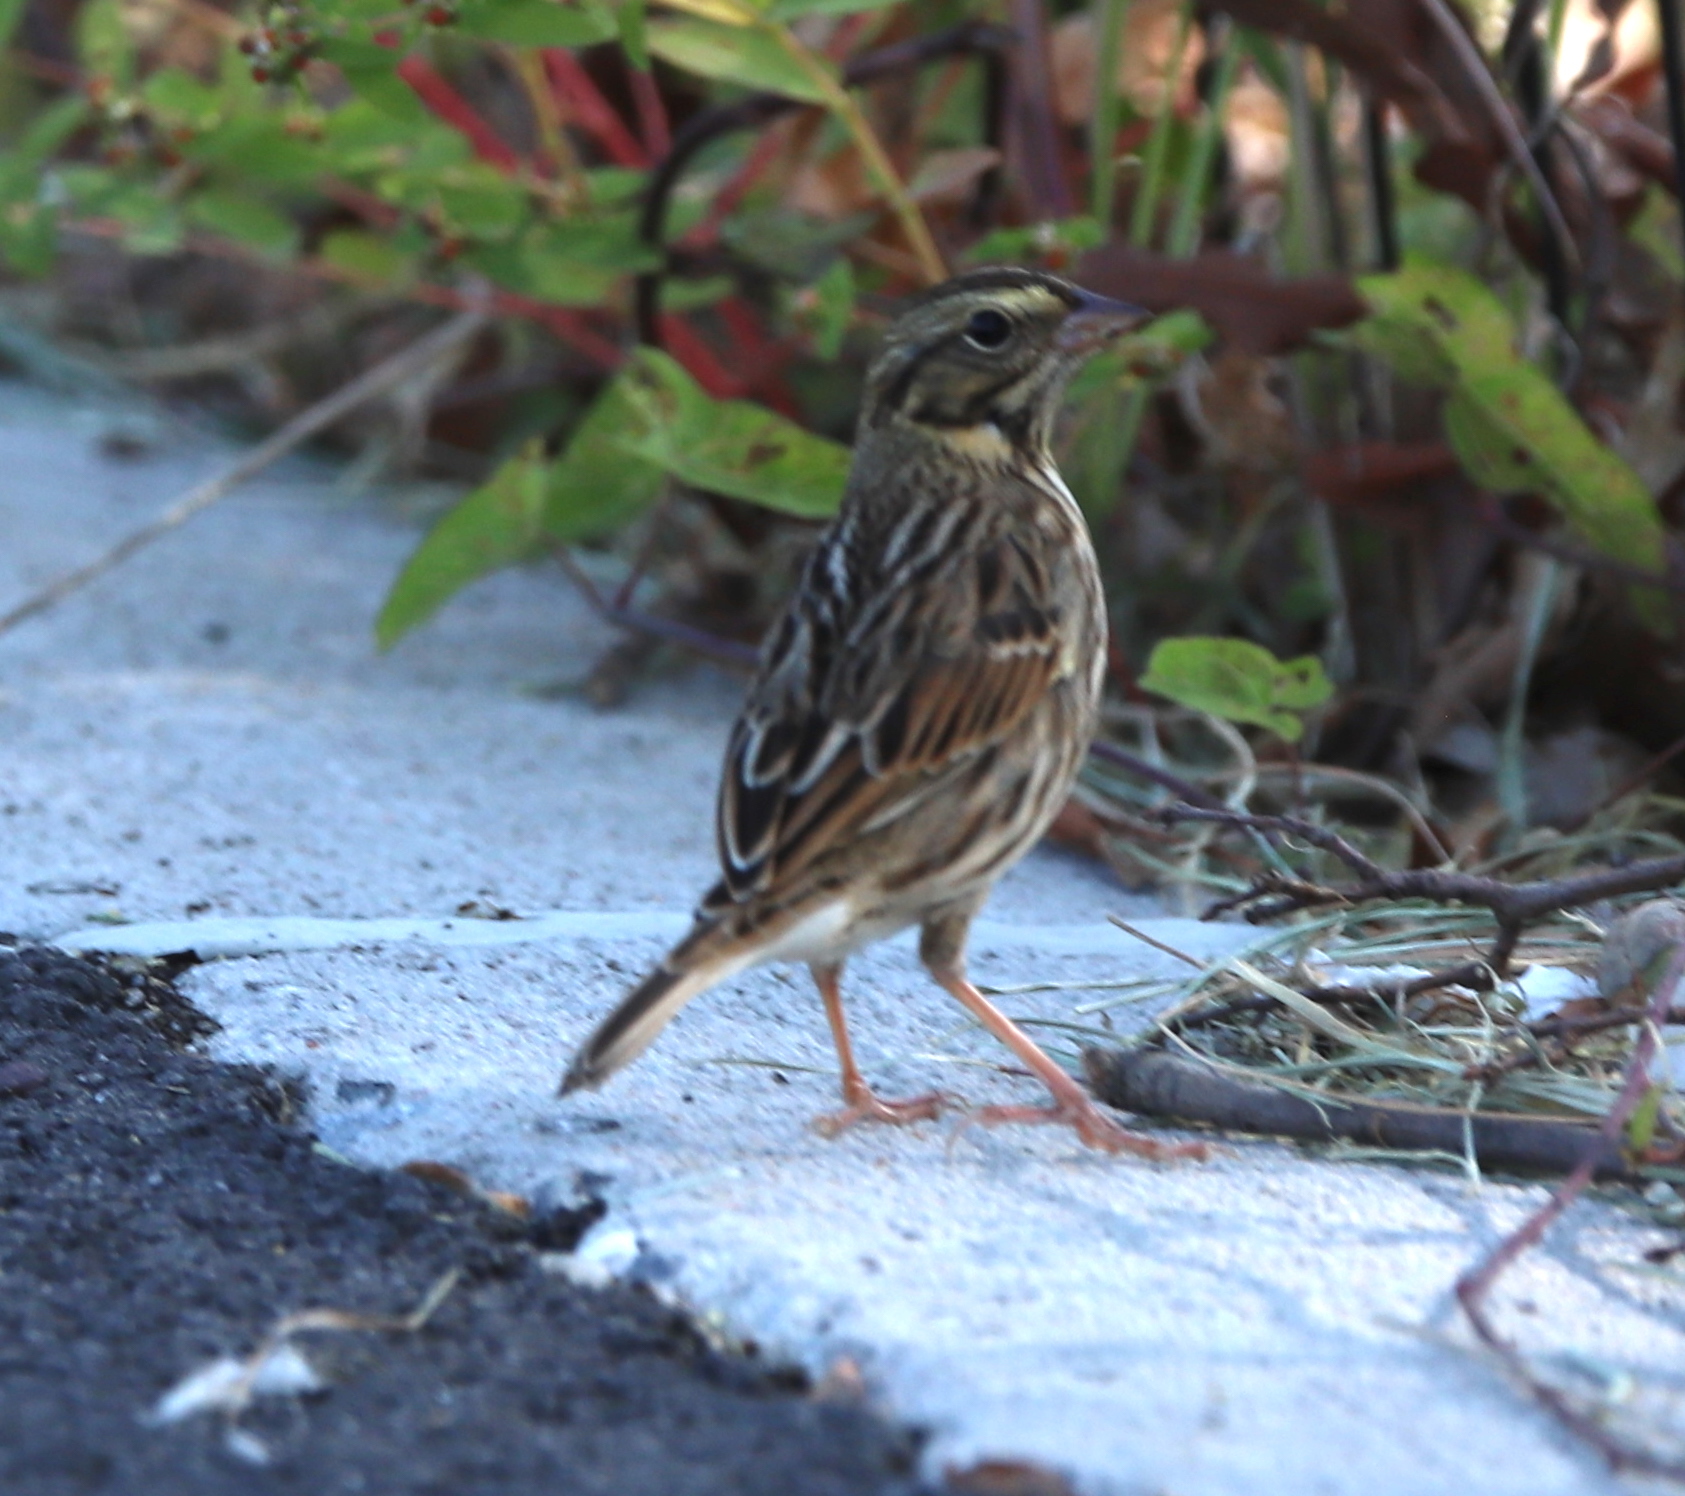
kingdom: Animalia
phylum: Chordata
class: Aves
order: Passeriformes
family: Passerellidae
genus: Passerculus
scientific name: Passerculus sandwichensis
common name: Savannah sparrow
